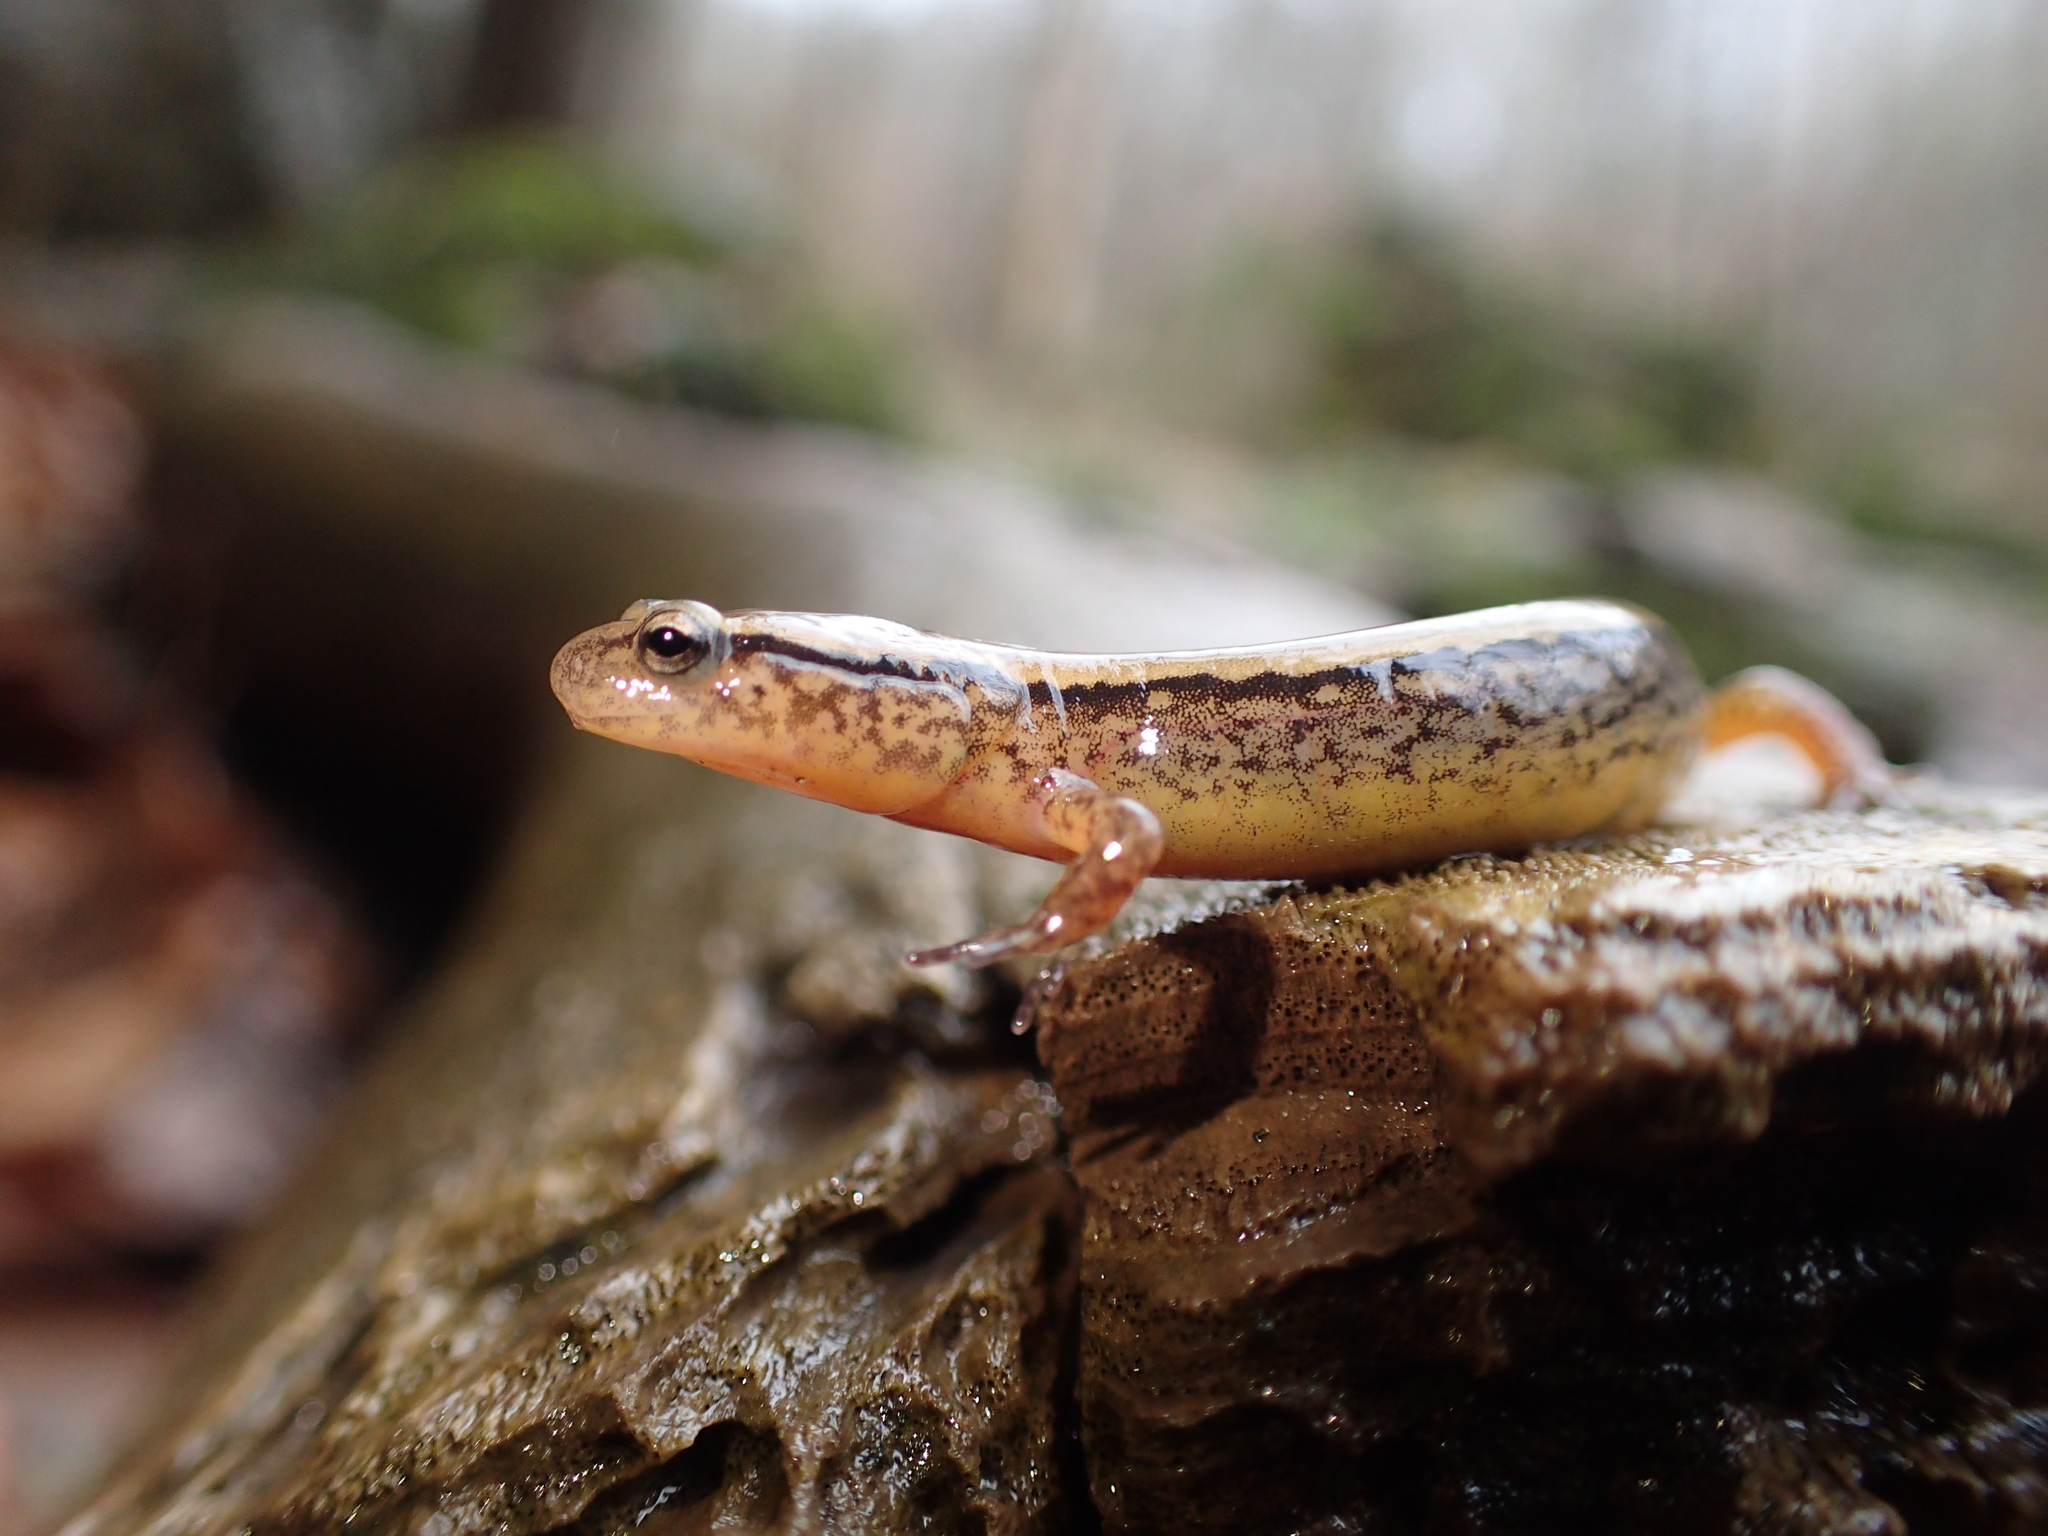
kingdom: Animalia
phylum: Chordata
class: Amphibia
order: Caudata
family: Plethodontidae
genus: Eurycea
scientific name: Eurycea cirrigera
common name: Southern two-lined salamander
